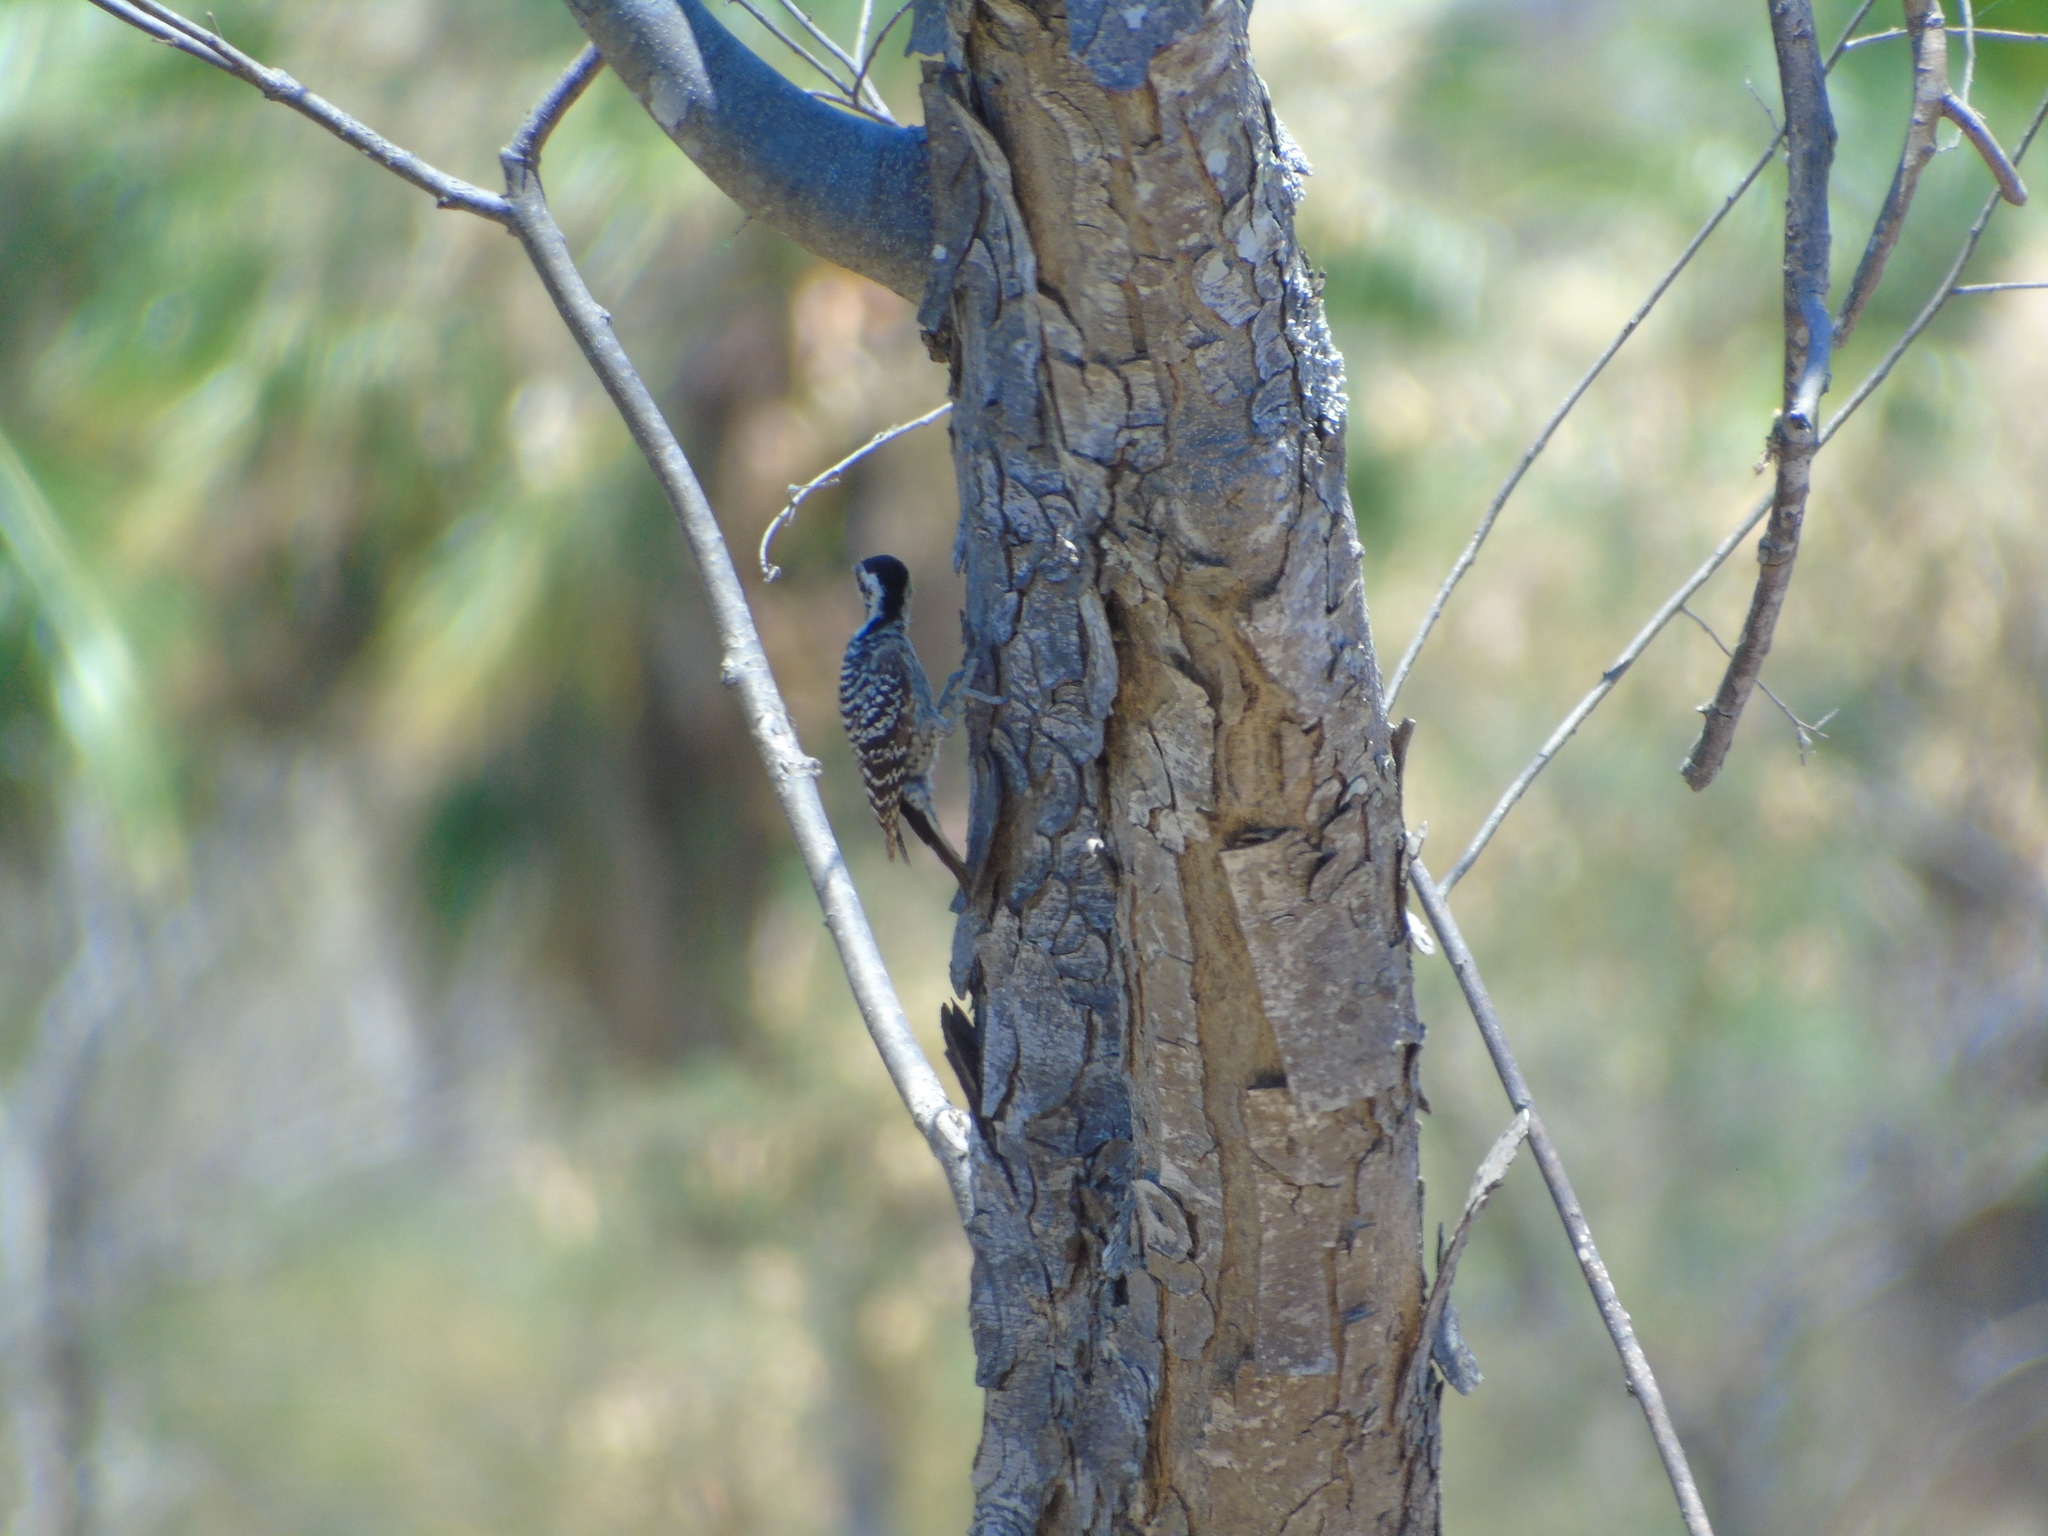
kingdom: Animalia
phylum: Chordata
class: Aves
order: Piciformes
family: Picidae
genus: Dryobates
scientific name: Dryobates scalaris
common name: Ladder-backed woodpecker
